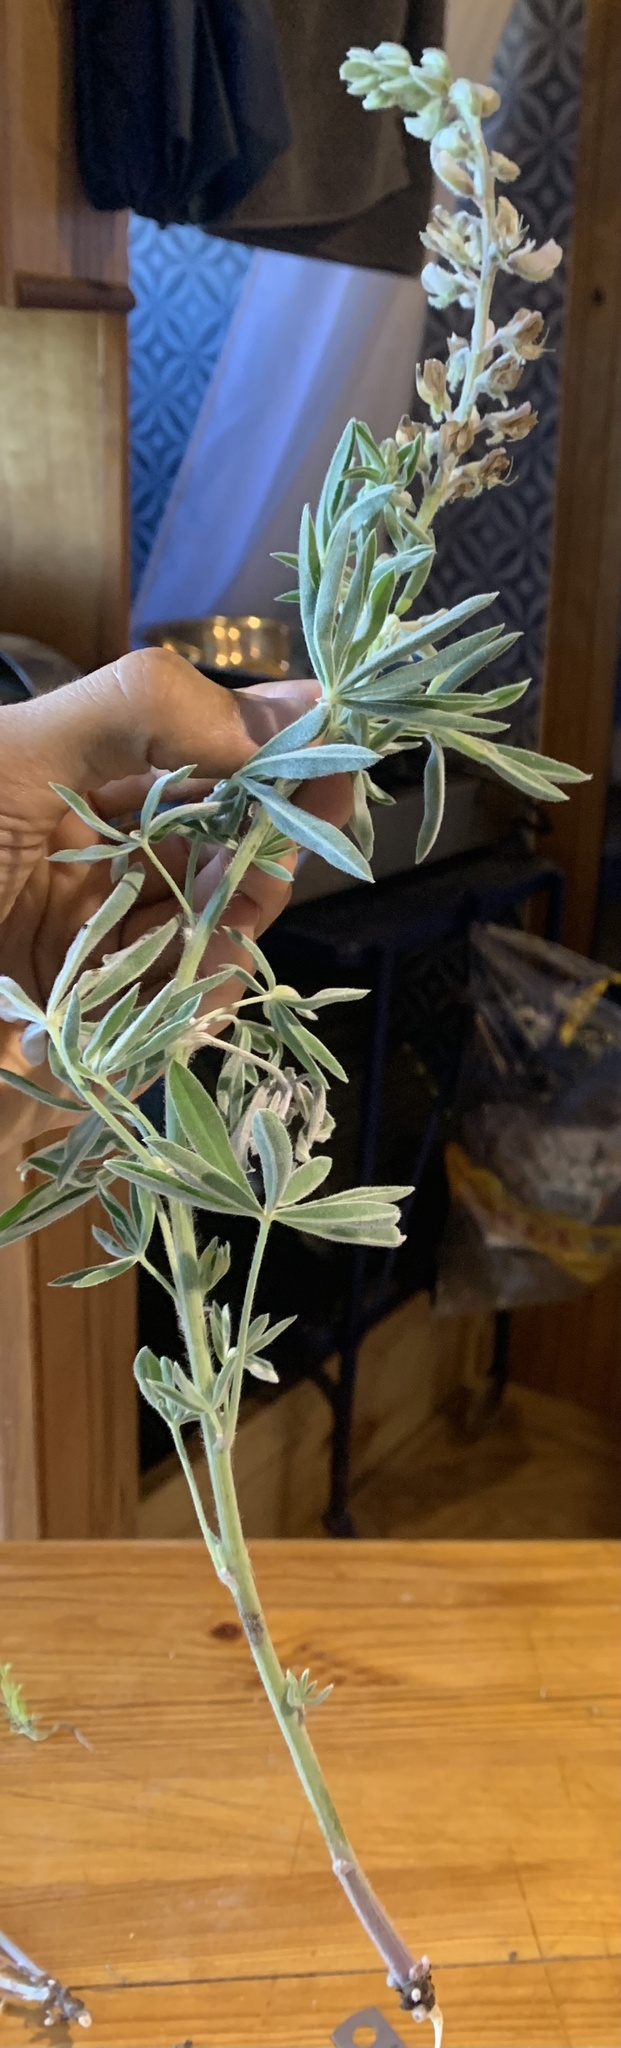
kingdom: Plantae
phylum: Tracheophyta
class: Magnoliopsida
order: Fabales
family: Fabaceae
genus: Lupinus
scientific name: Lupinus sericeus
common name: Silky lupine
